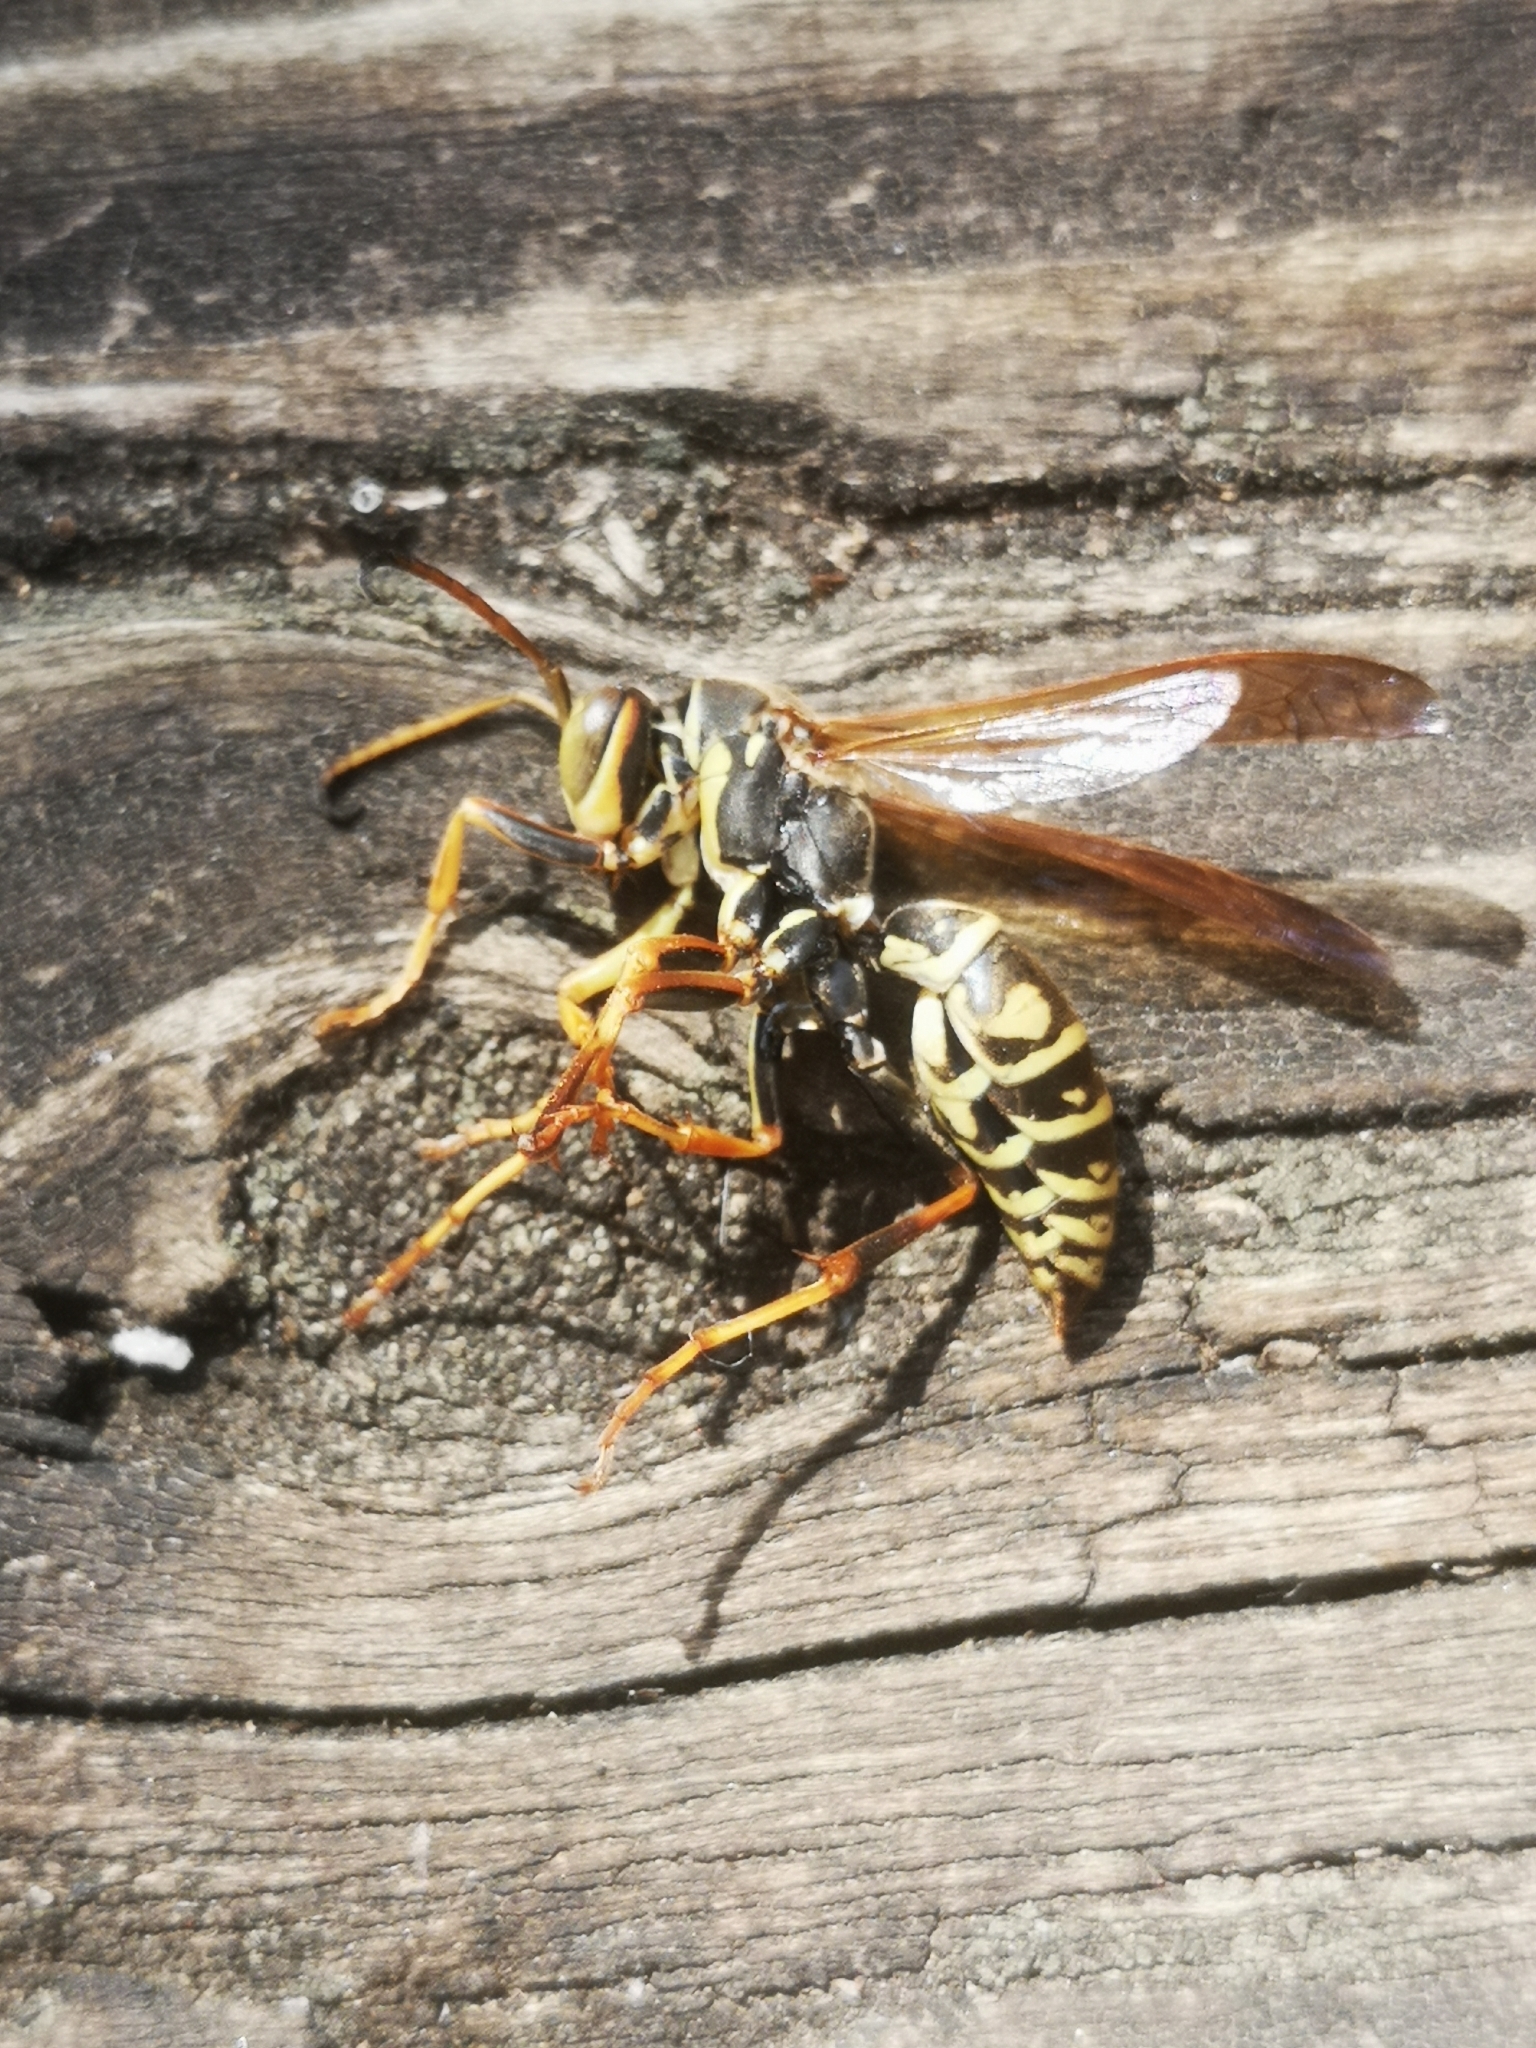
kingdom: Animalia
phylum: Arthropoda
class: Insecta
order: Hymenoptera
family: Eumenidae
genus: Polistes
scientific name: Polistes fuscatus
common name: Dark paper wasp
